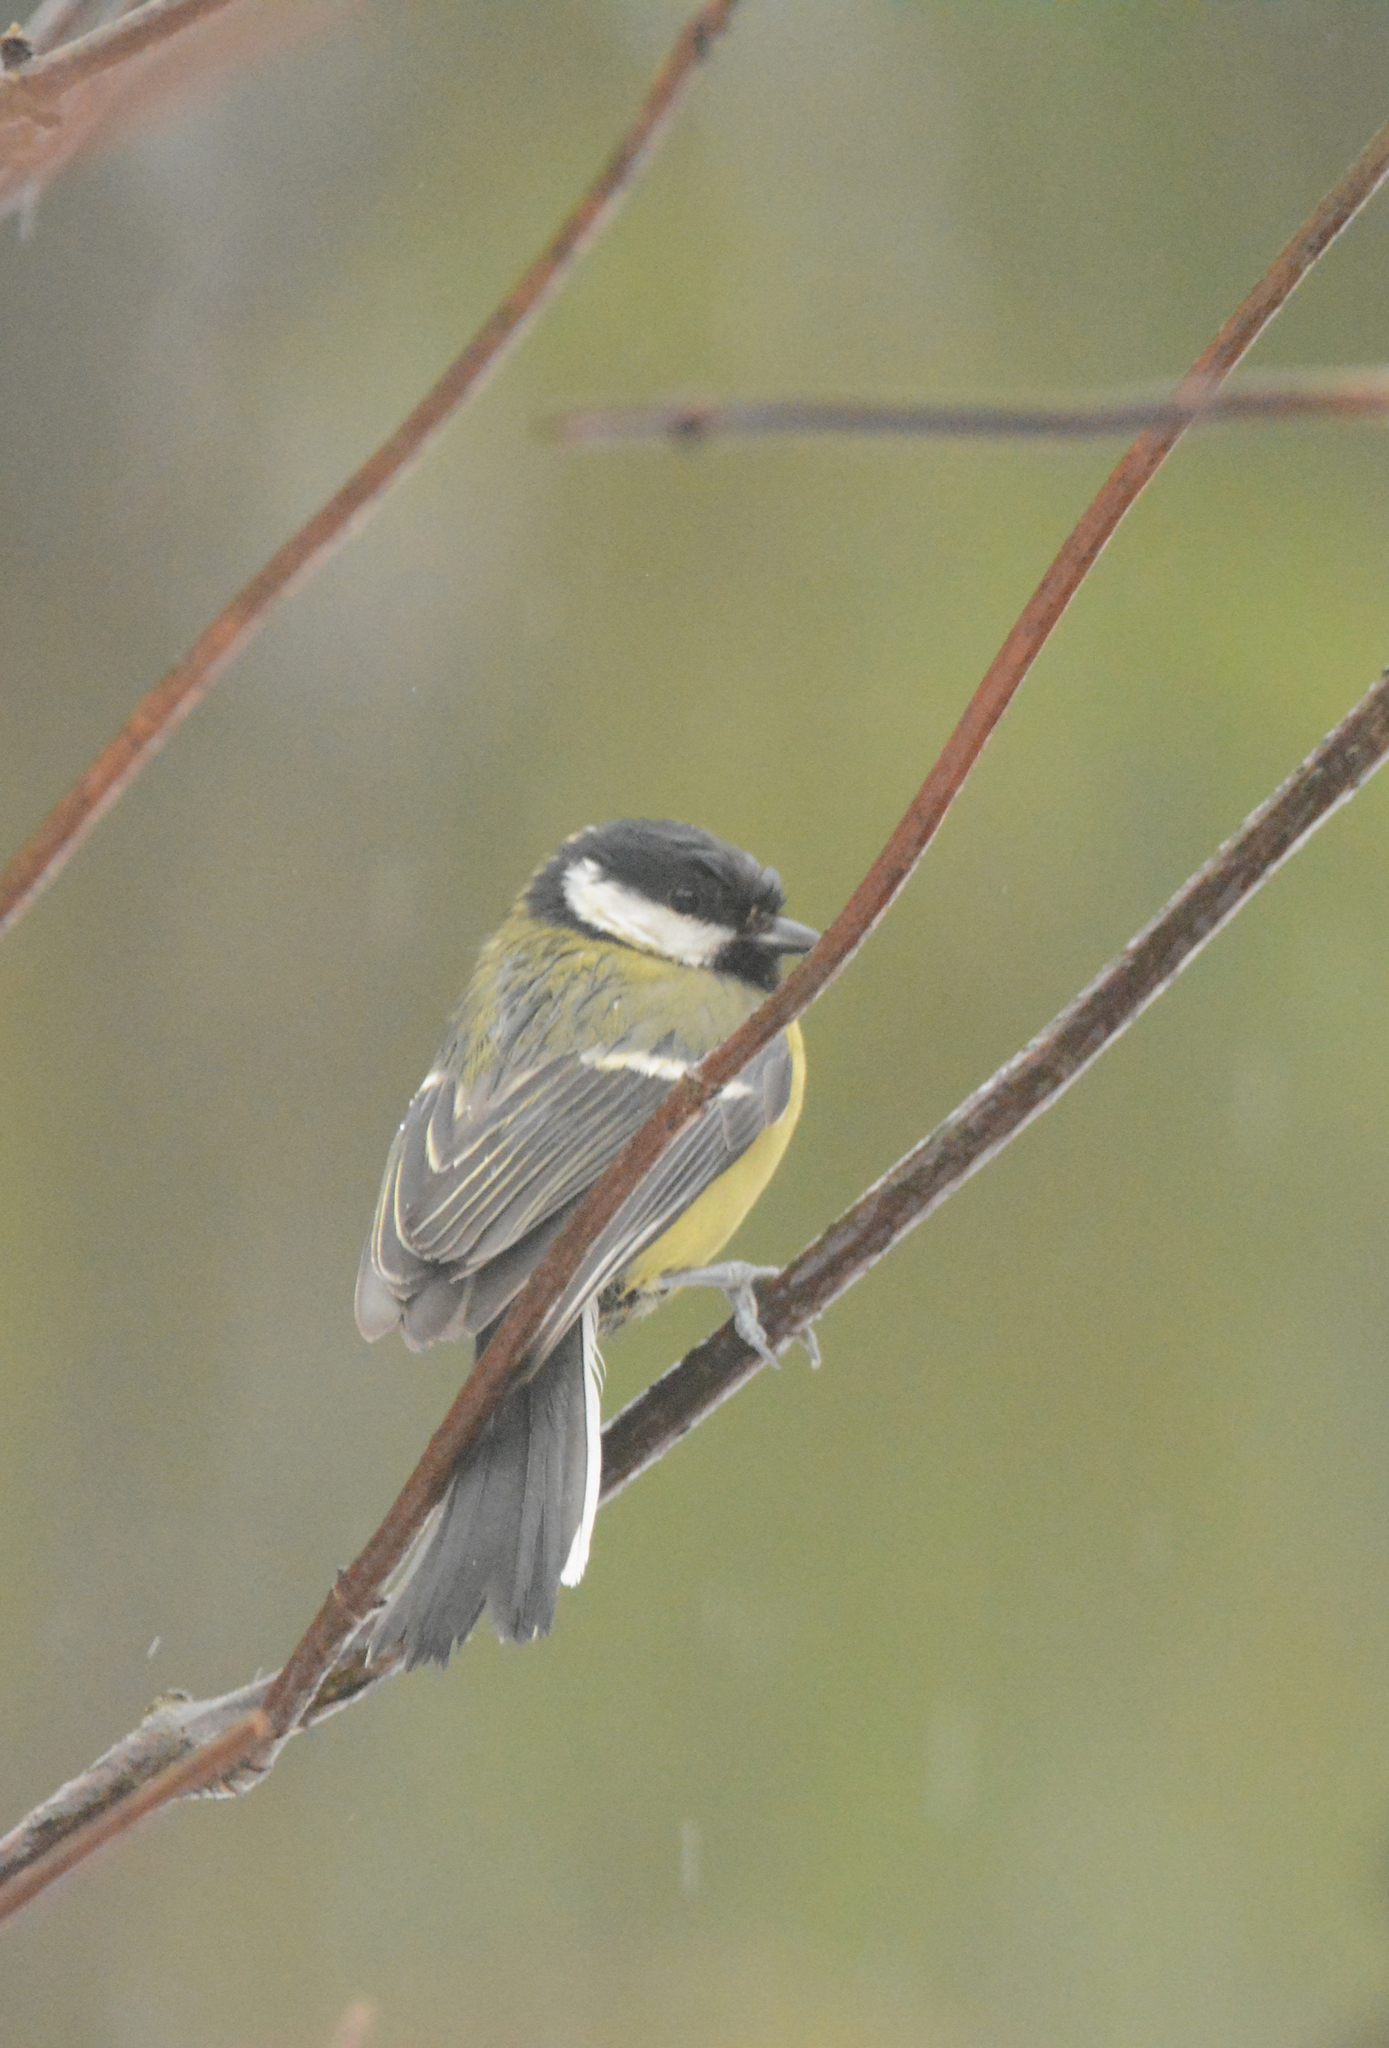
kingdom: Animalia
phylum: Chordata
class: Aves
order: Passeriformes
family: Paridae
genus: Parus
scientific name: Parus major
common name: Great tit
